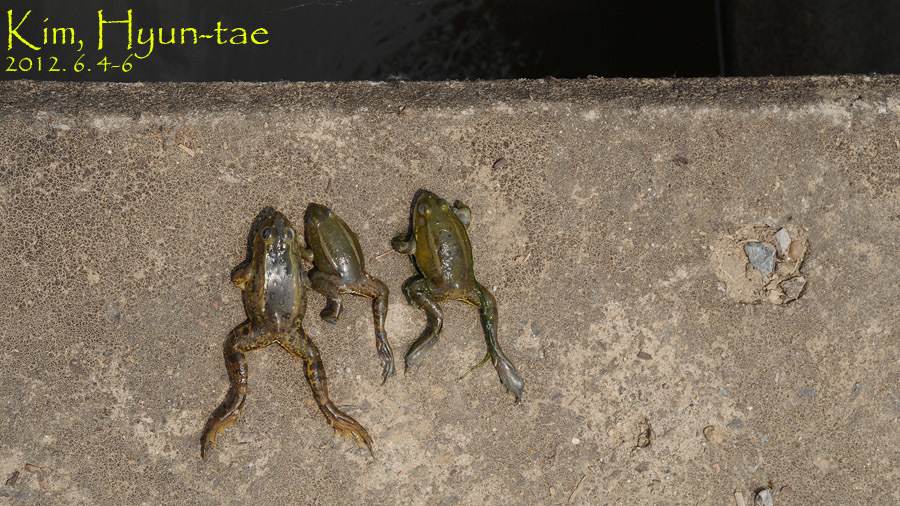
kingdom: Animalia
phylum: Chordata
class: Amphibia
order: Anura
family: Ranidae
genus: Pelophylax
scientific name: Pelophylax chosenicus
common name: Gold-spotted pond frog
